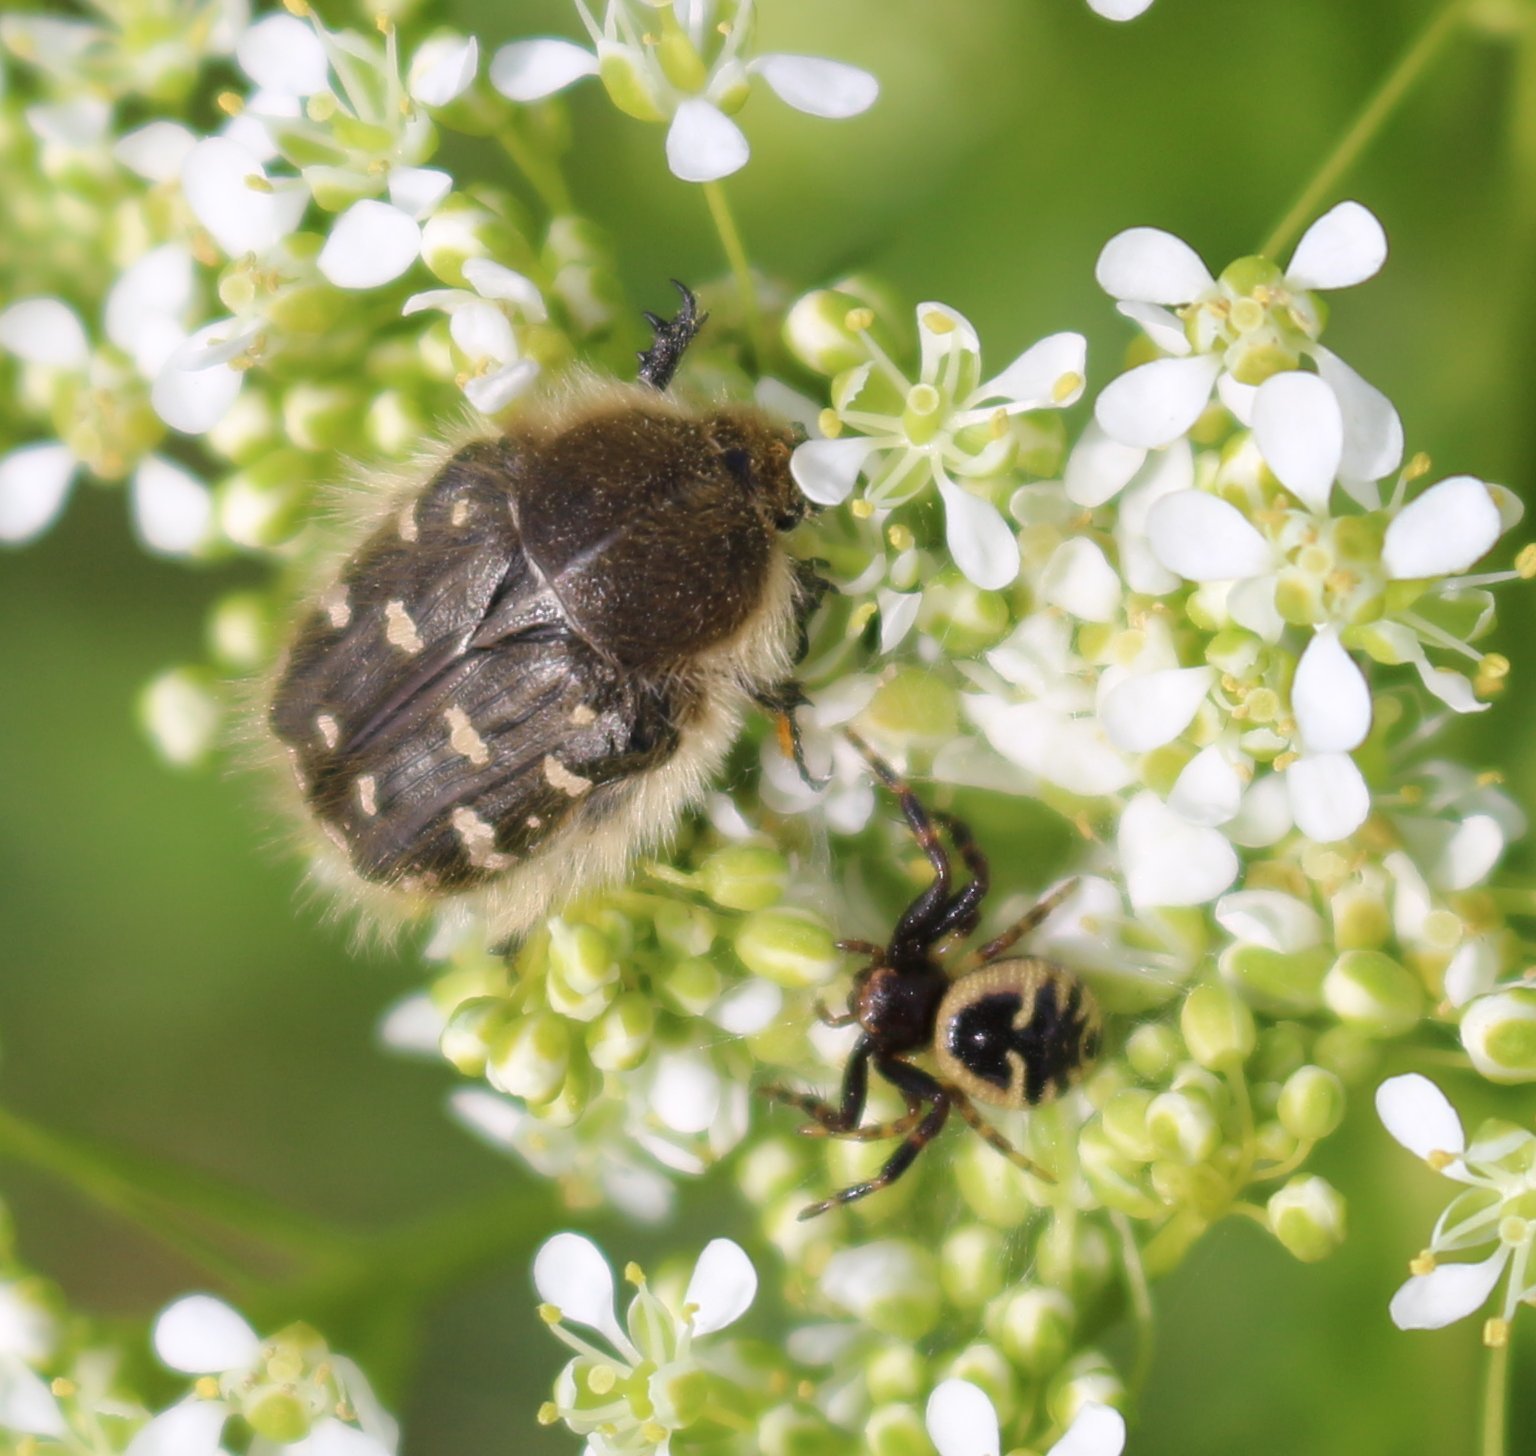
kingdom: Animalia
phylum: Arthropoda
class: Insecta
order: Coleoptera
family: Scarabaeidae
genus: Tropinota
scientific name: Tropinota hirta
